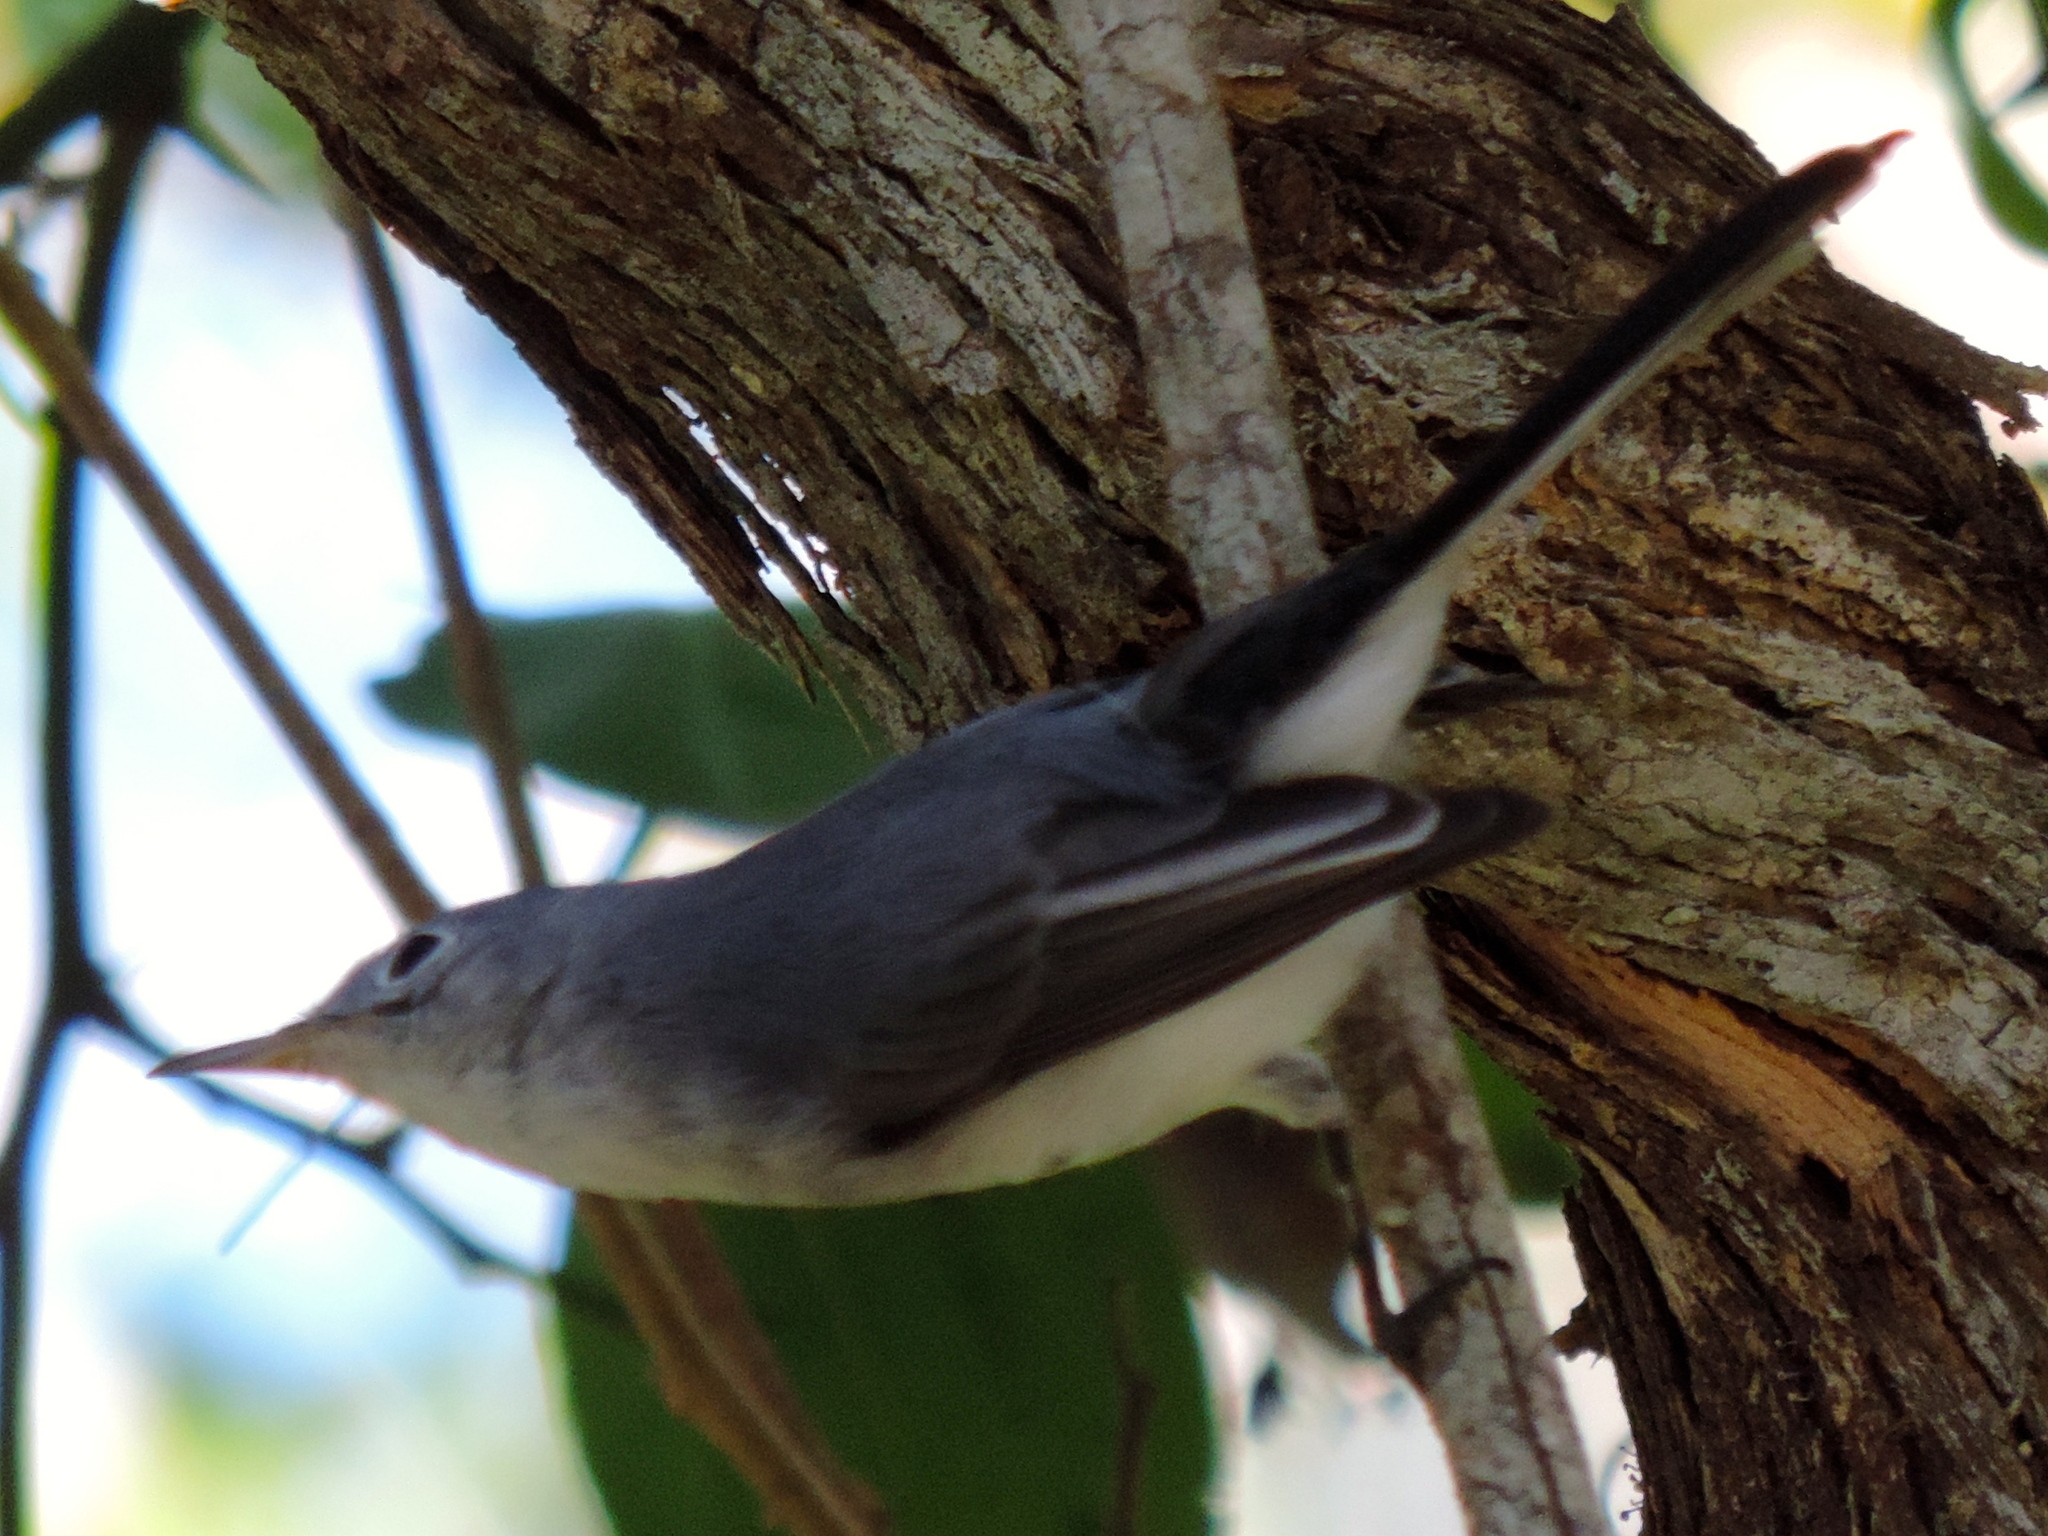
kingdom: Animalia
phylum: Chordata
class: Aves
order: Passeriformes
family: Polioptilidae
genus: Polioptila
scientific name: Polioptila caerulea
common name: Blue-gray gnatcatcher
